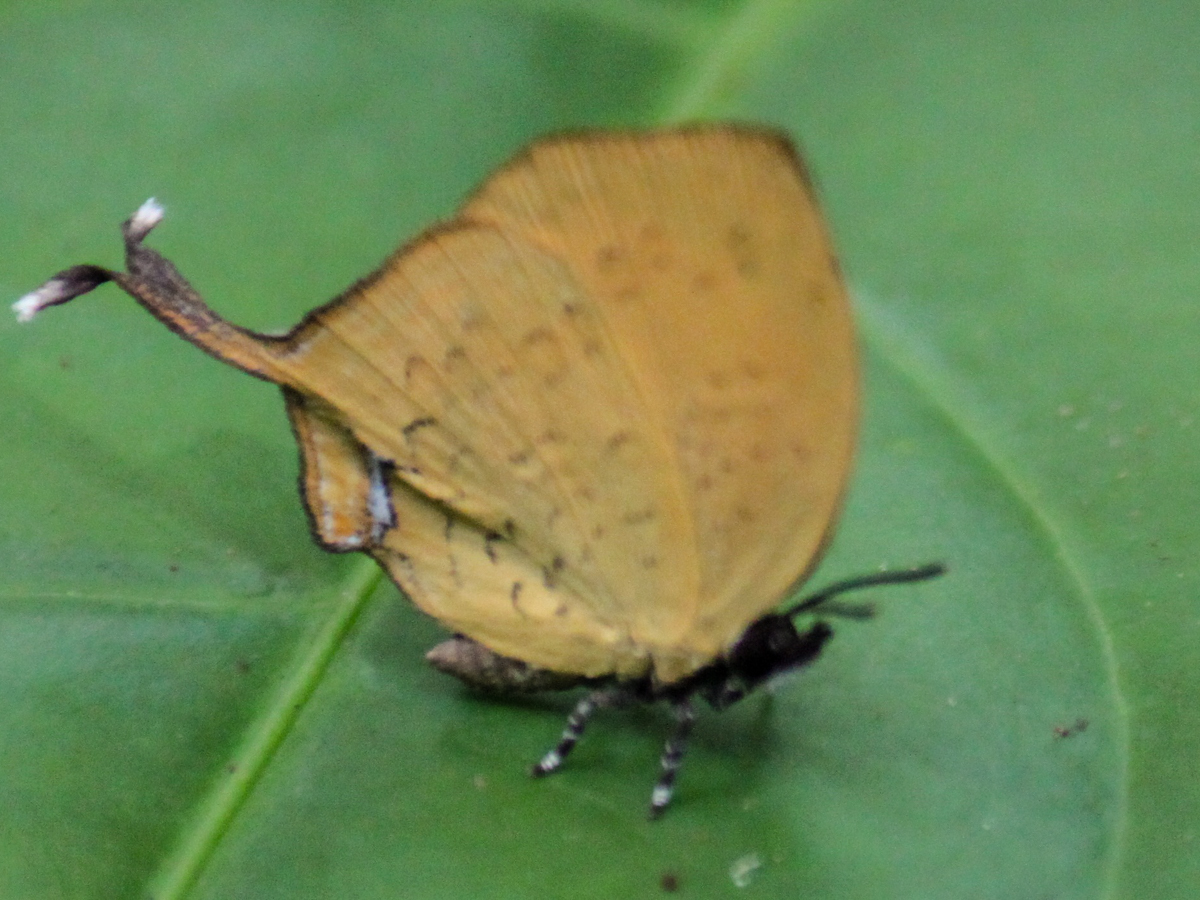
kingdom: Animalia
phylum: Arthropoda
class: Insecta
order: Lepidoptera
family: Lycaenidae
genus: Yasoda
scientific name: Yasoda tripunctata
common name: Branded yamfly
